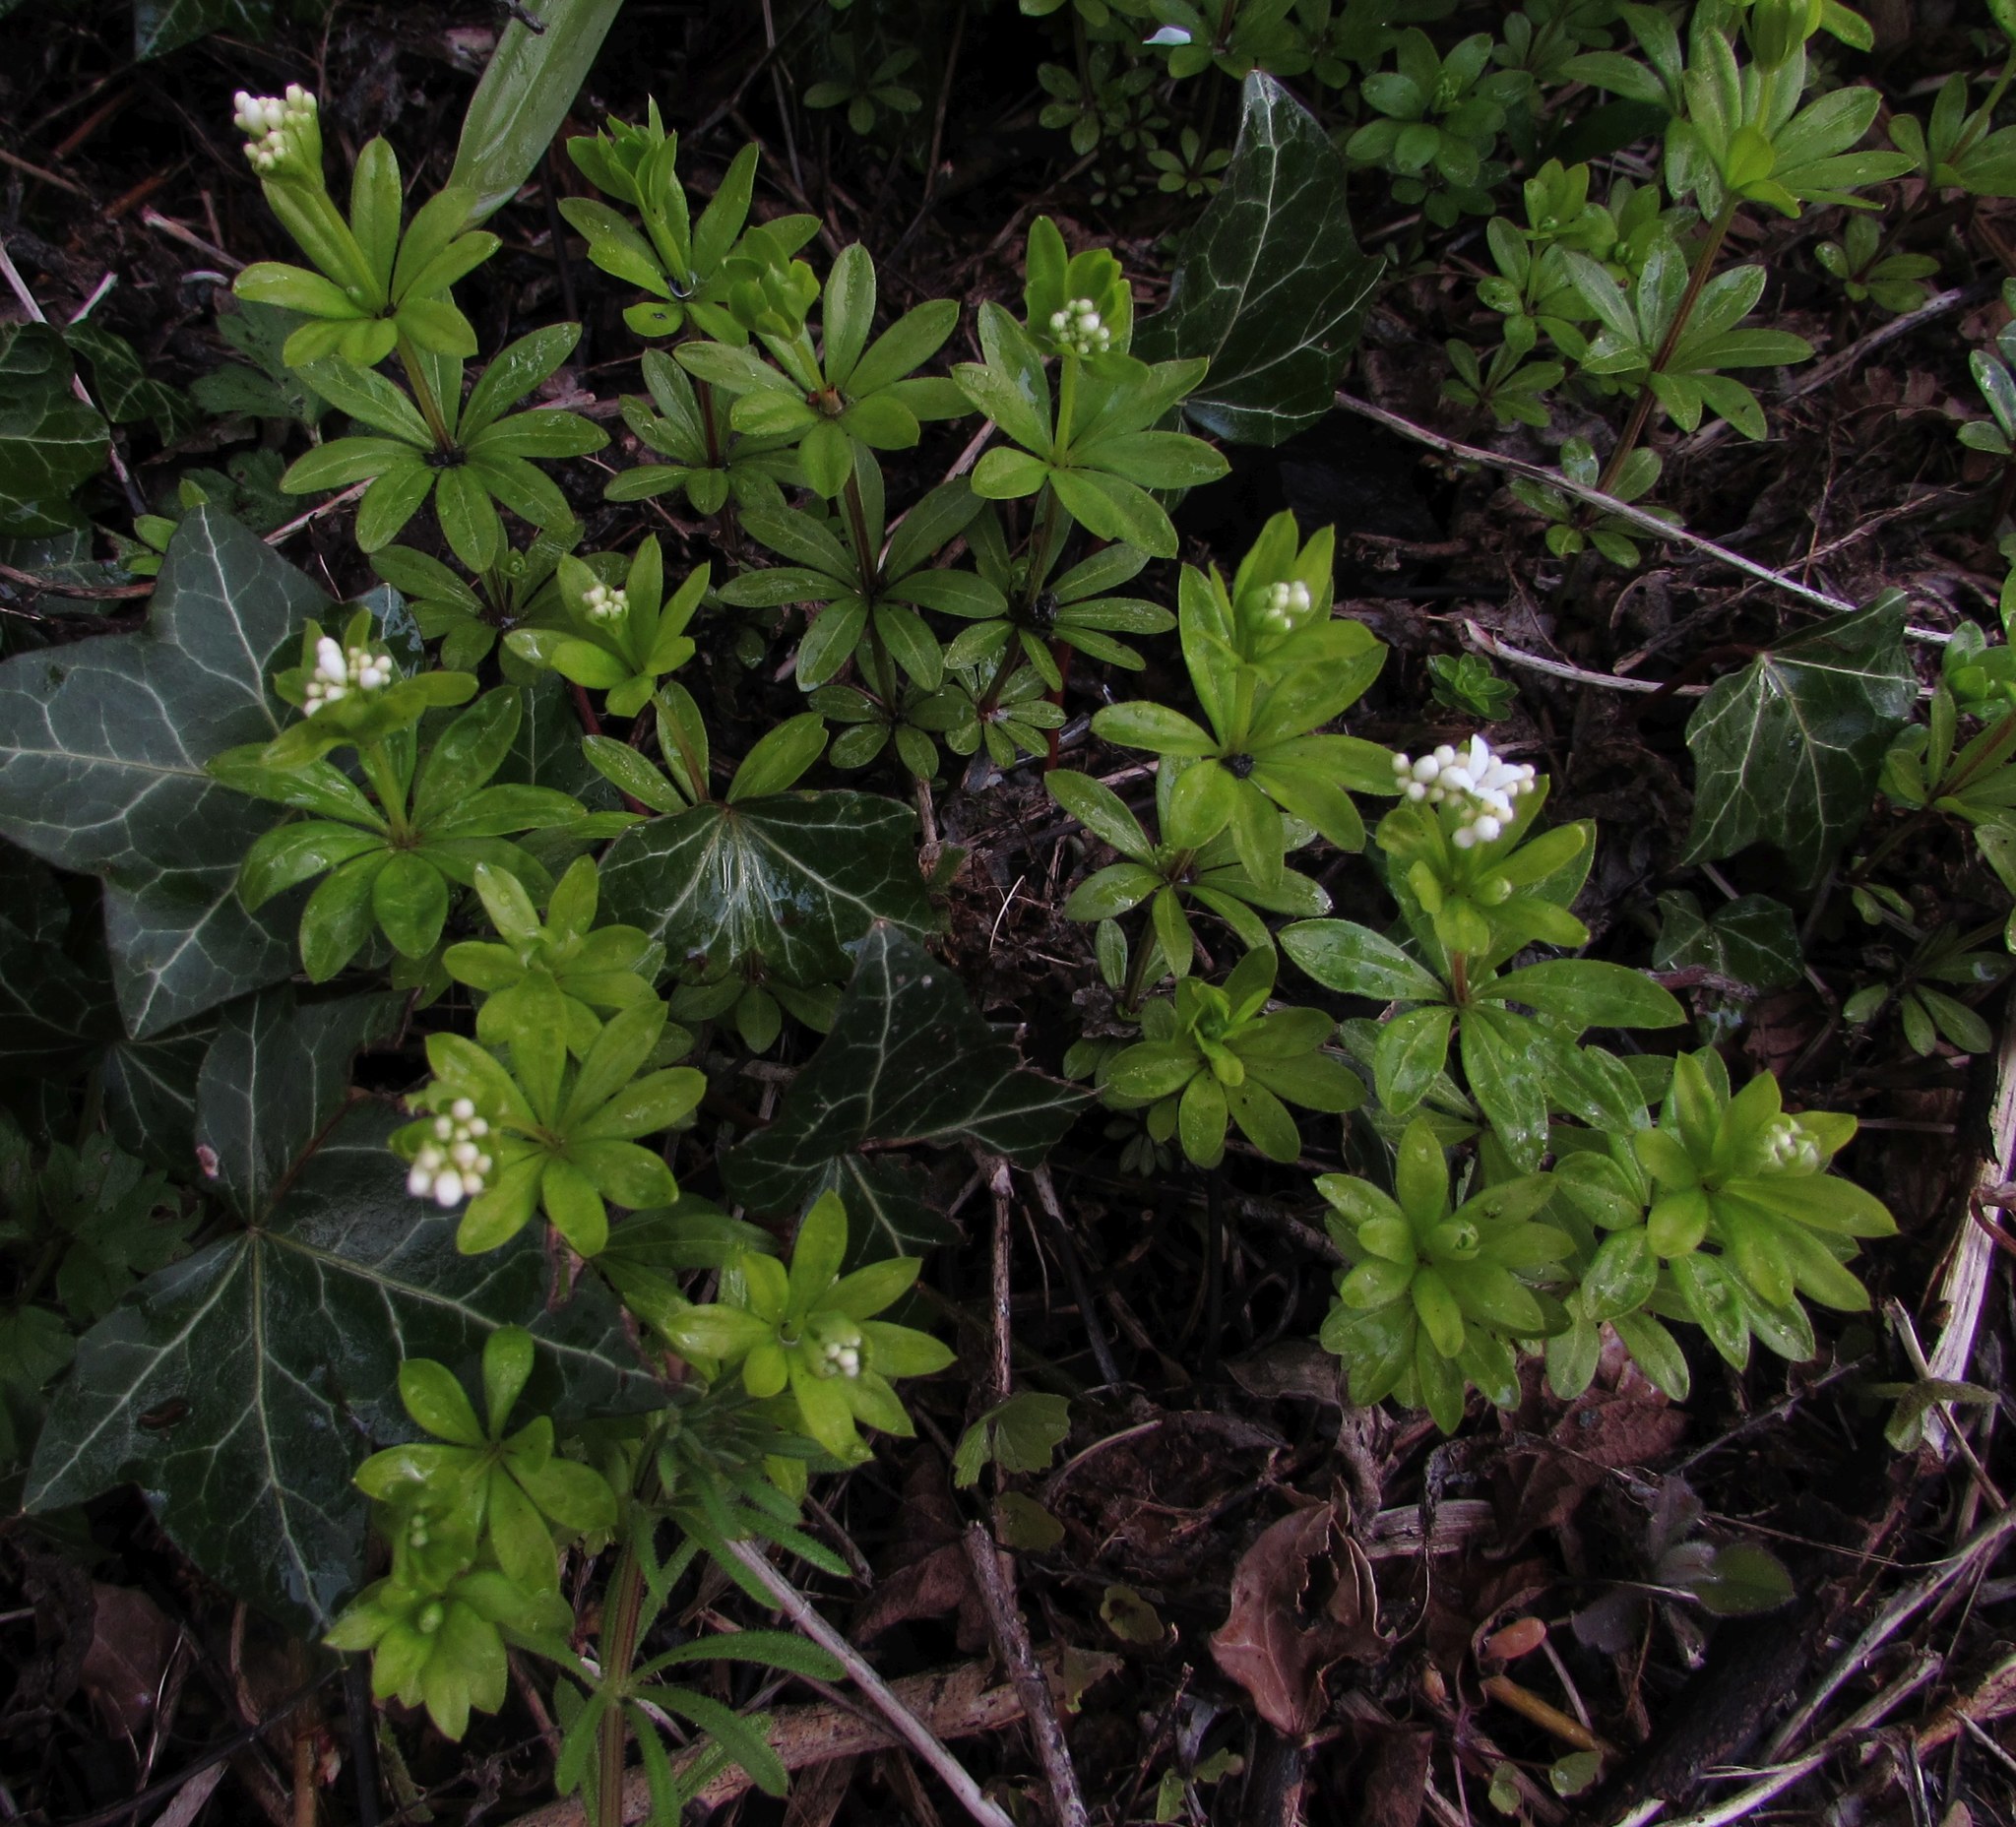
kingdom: Plantae
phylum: Tracheophyta
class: Magnoliopsida
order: Gentianales
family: Rubiaceae
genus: Galium
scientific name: Galium odoratum
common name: Sweet woodruff
